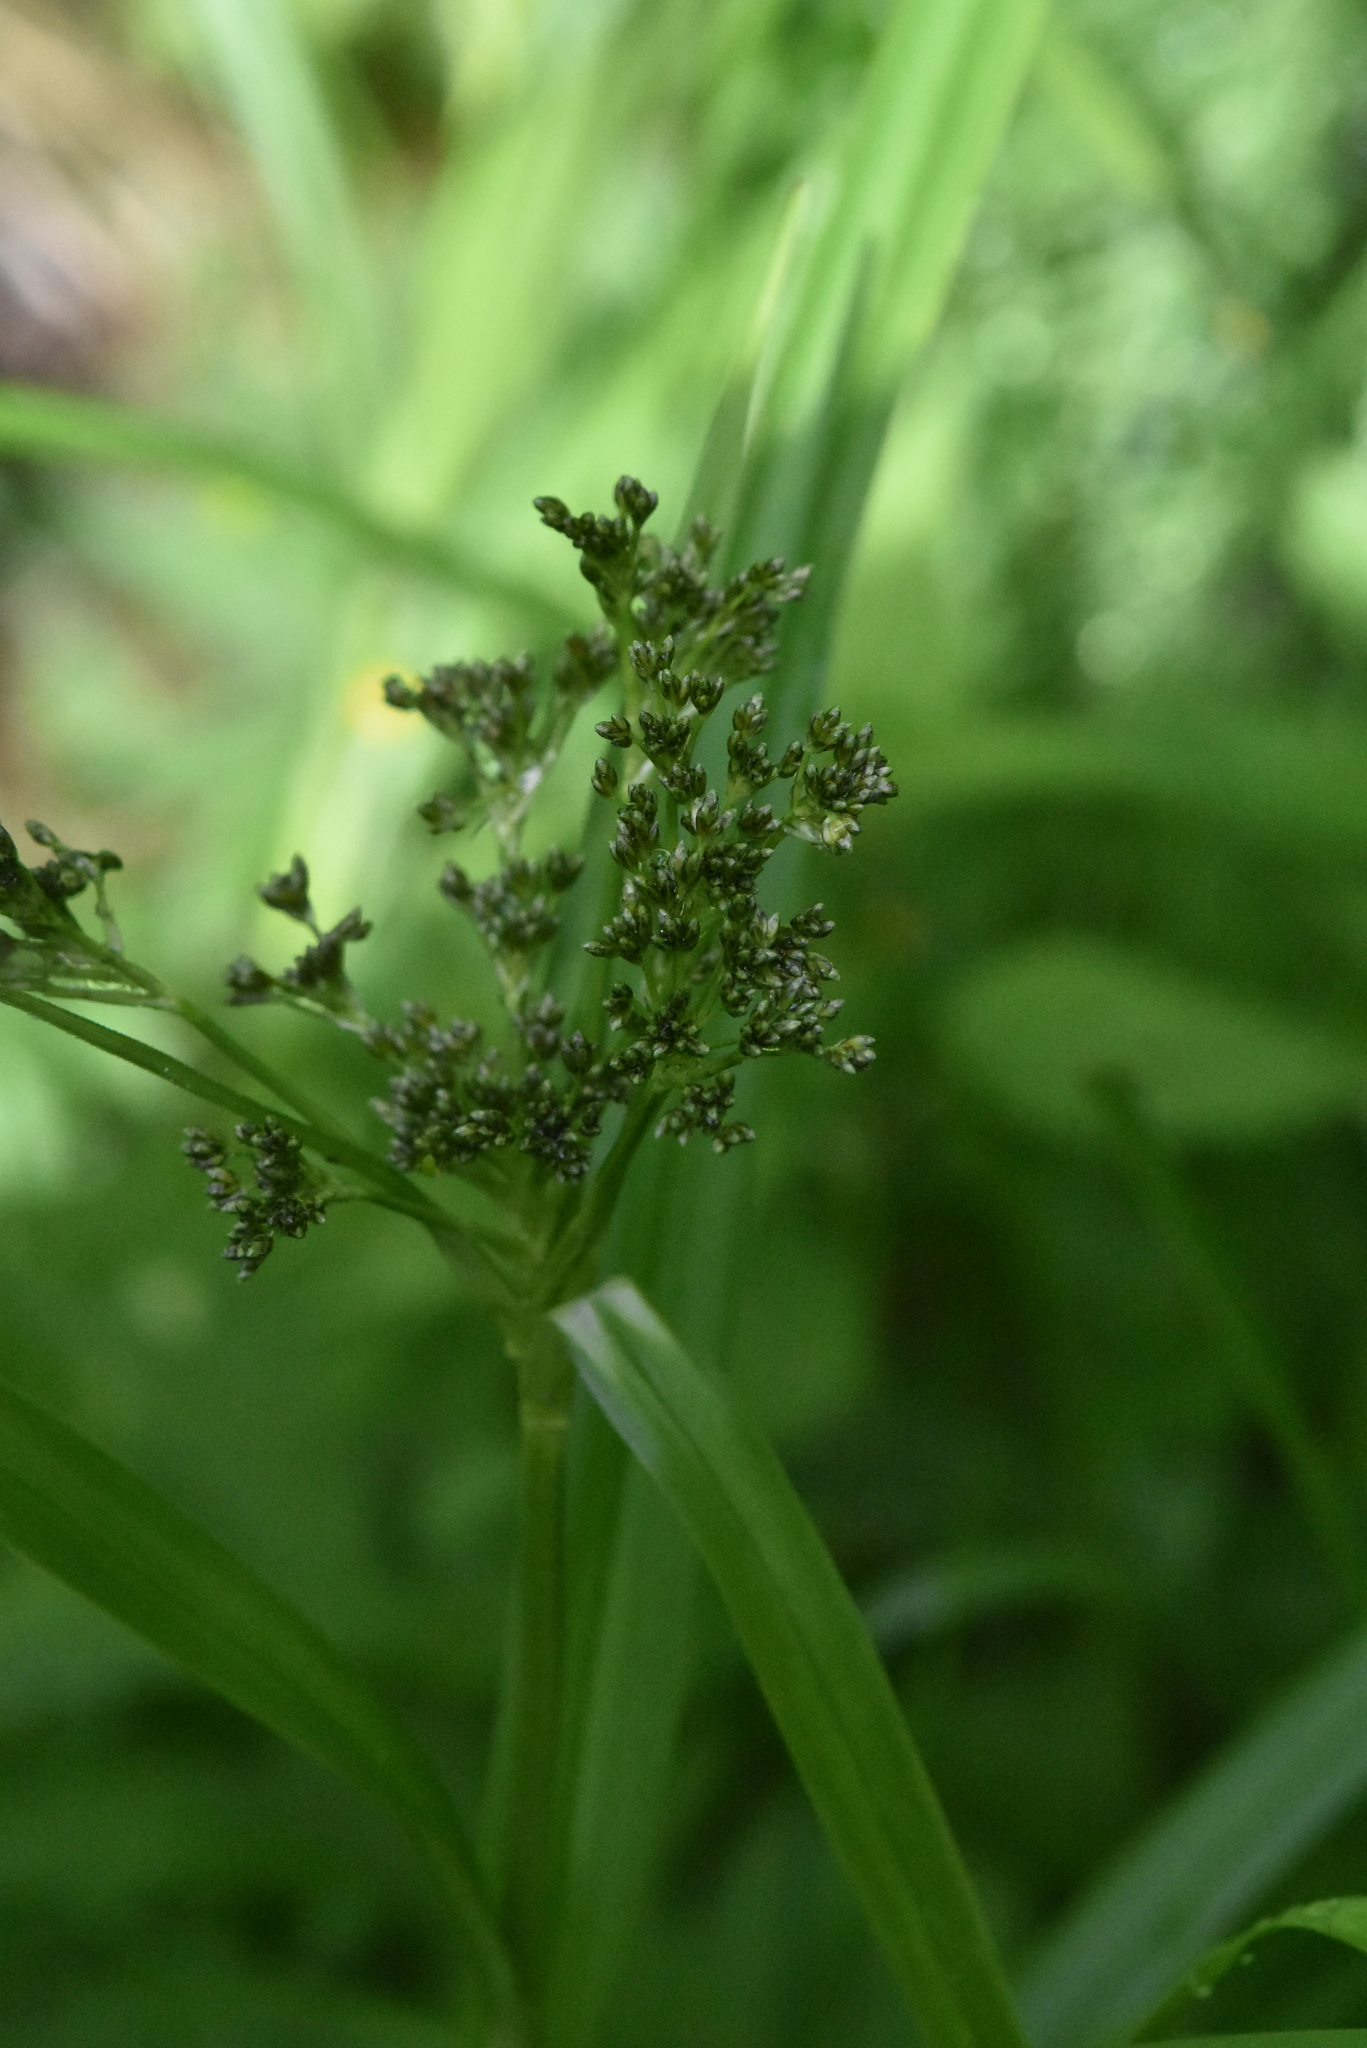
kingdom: Plantae
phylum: Tracheophyta
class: Liliopsida
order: Poales
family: Cyperaceae
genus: Scirpus
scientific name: Scirpus sylvaticus
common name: Wood club-rush
